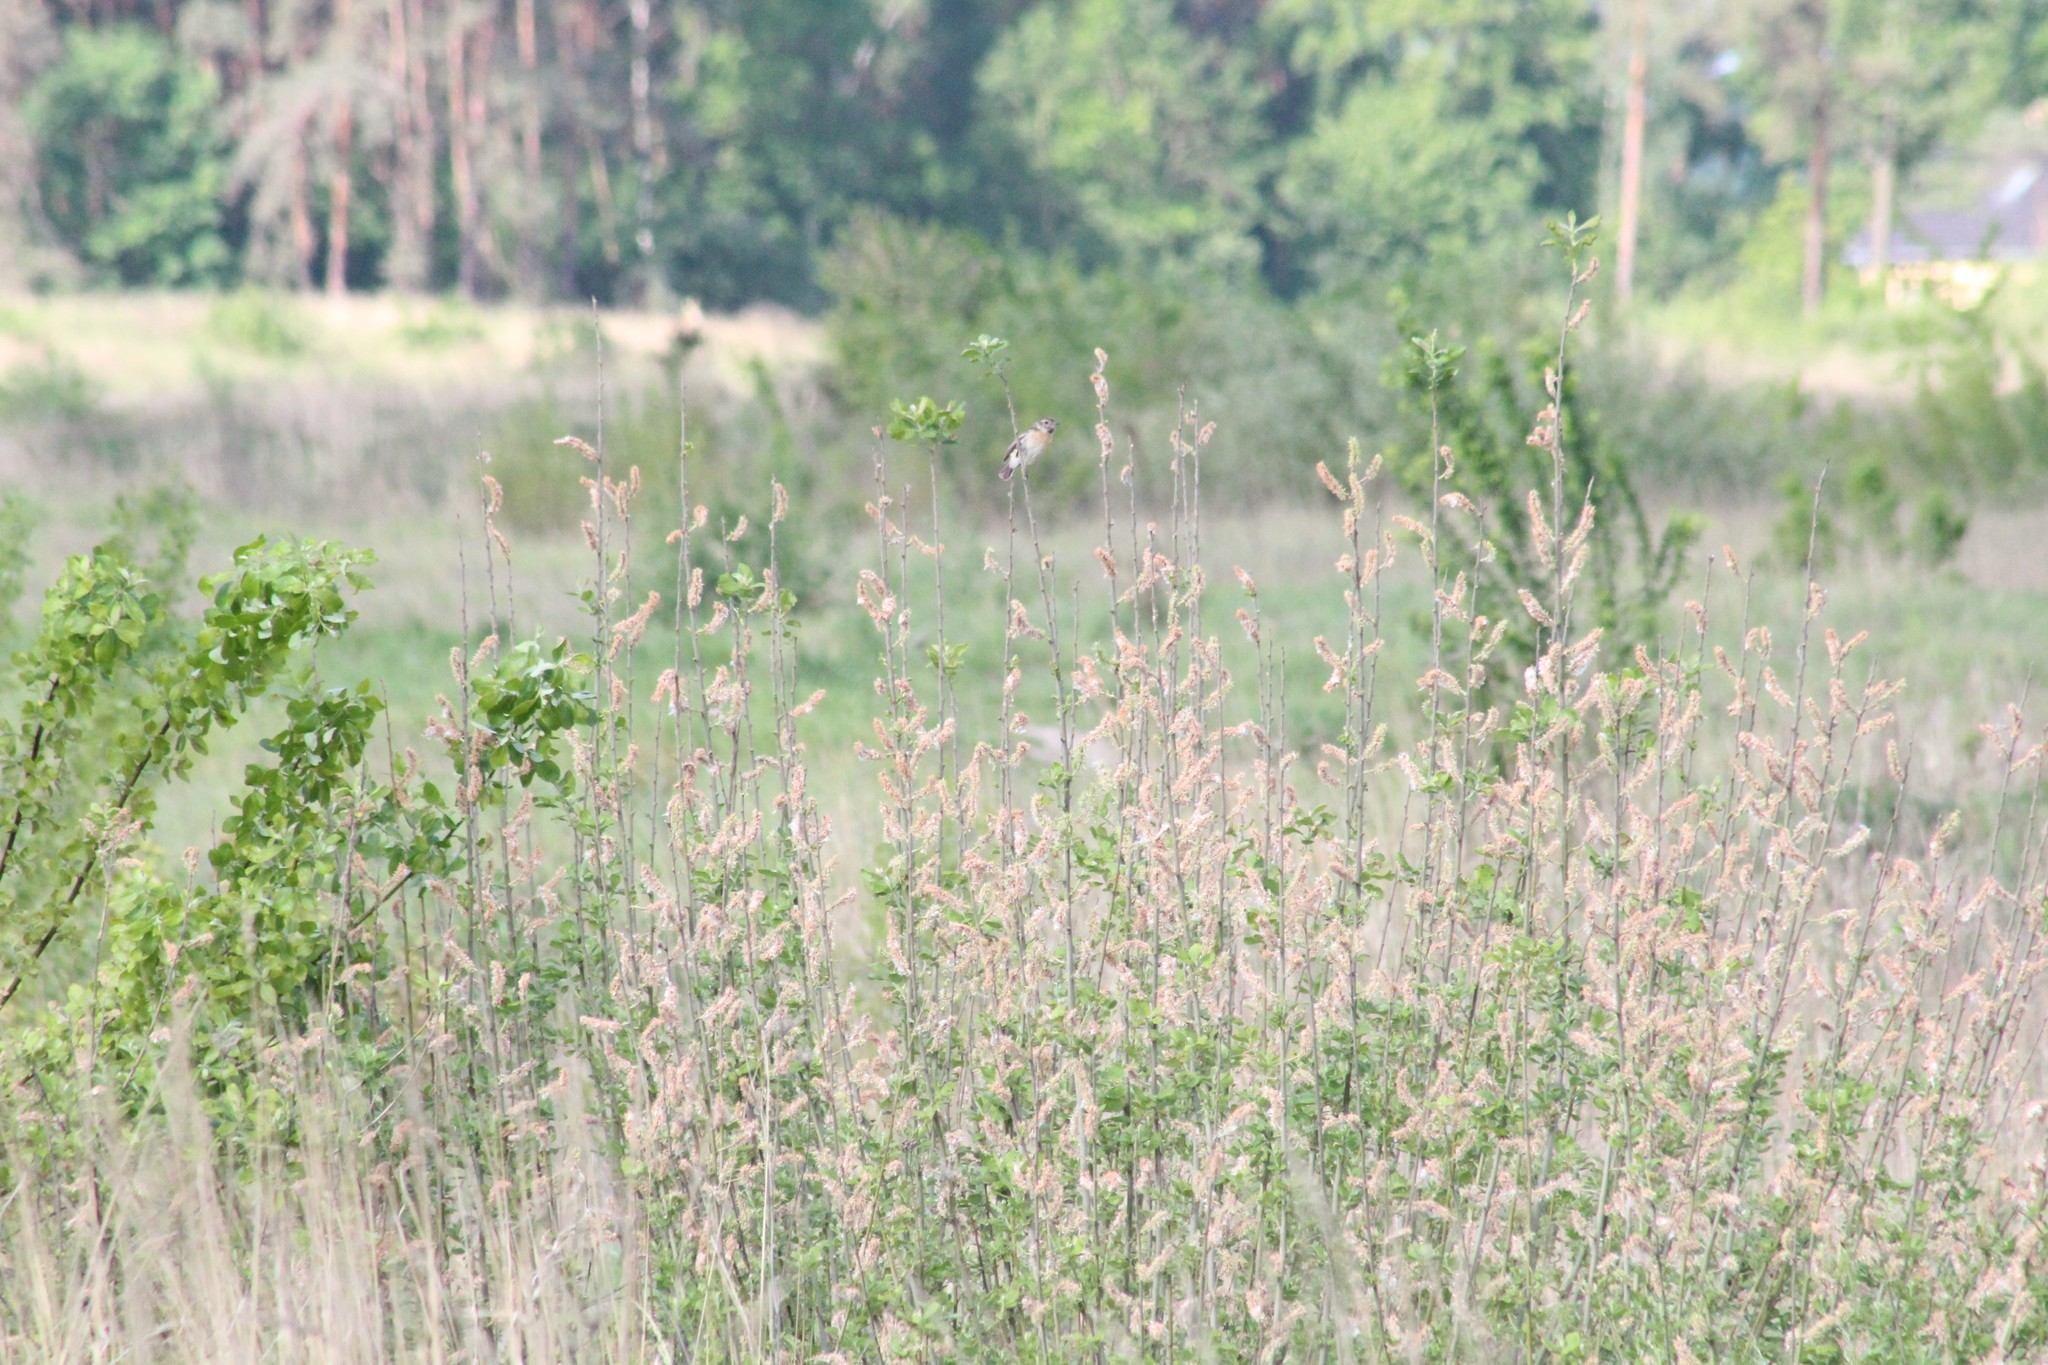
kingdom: Animalia
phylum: Chordata
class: Aves
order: Passeriformes
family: Muscicapidae
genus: Saxicola
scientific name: Saxicola rubicola
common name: European stonechat
